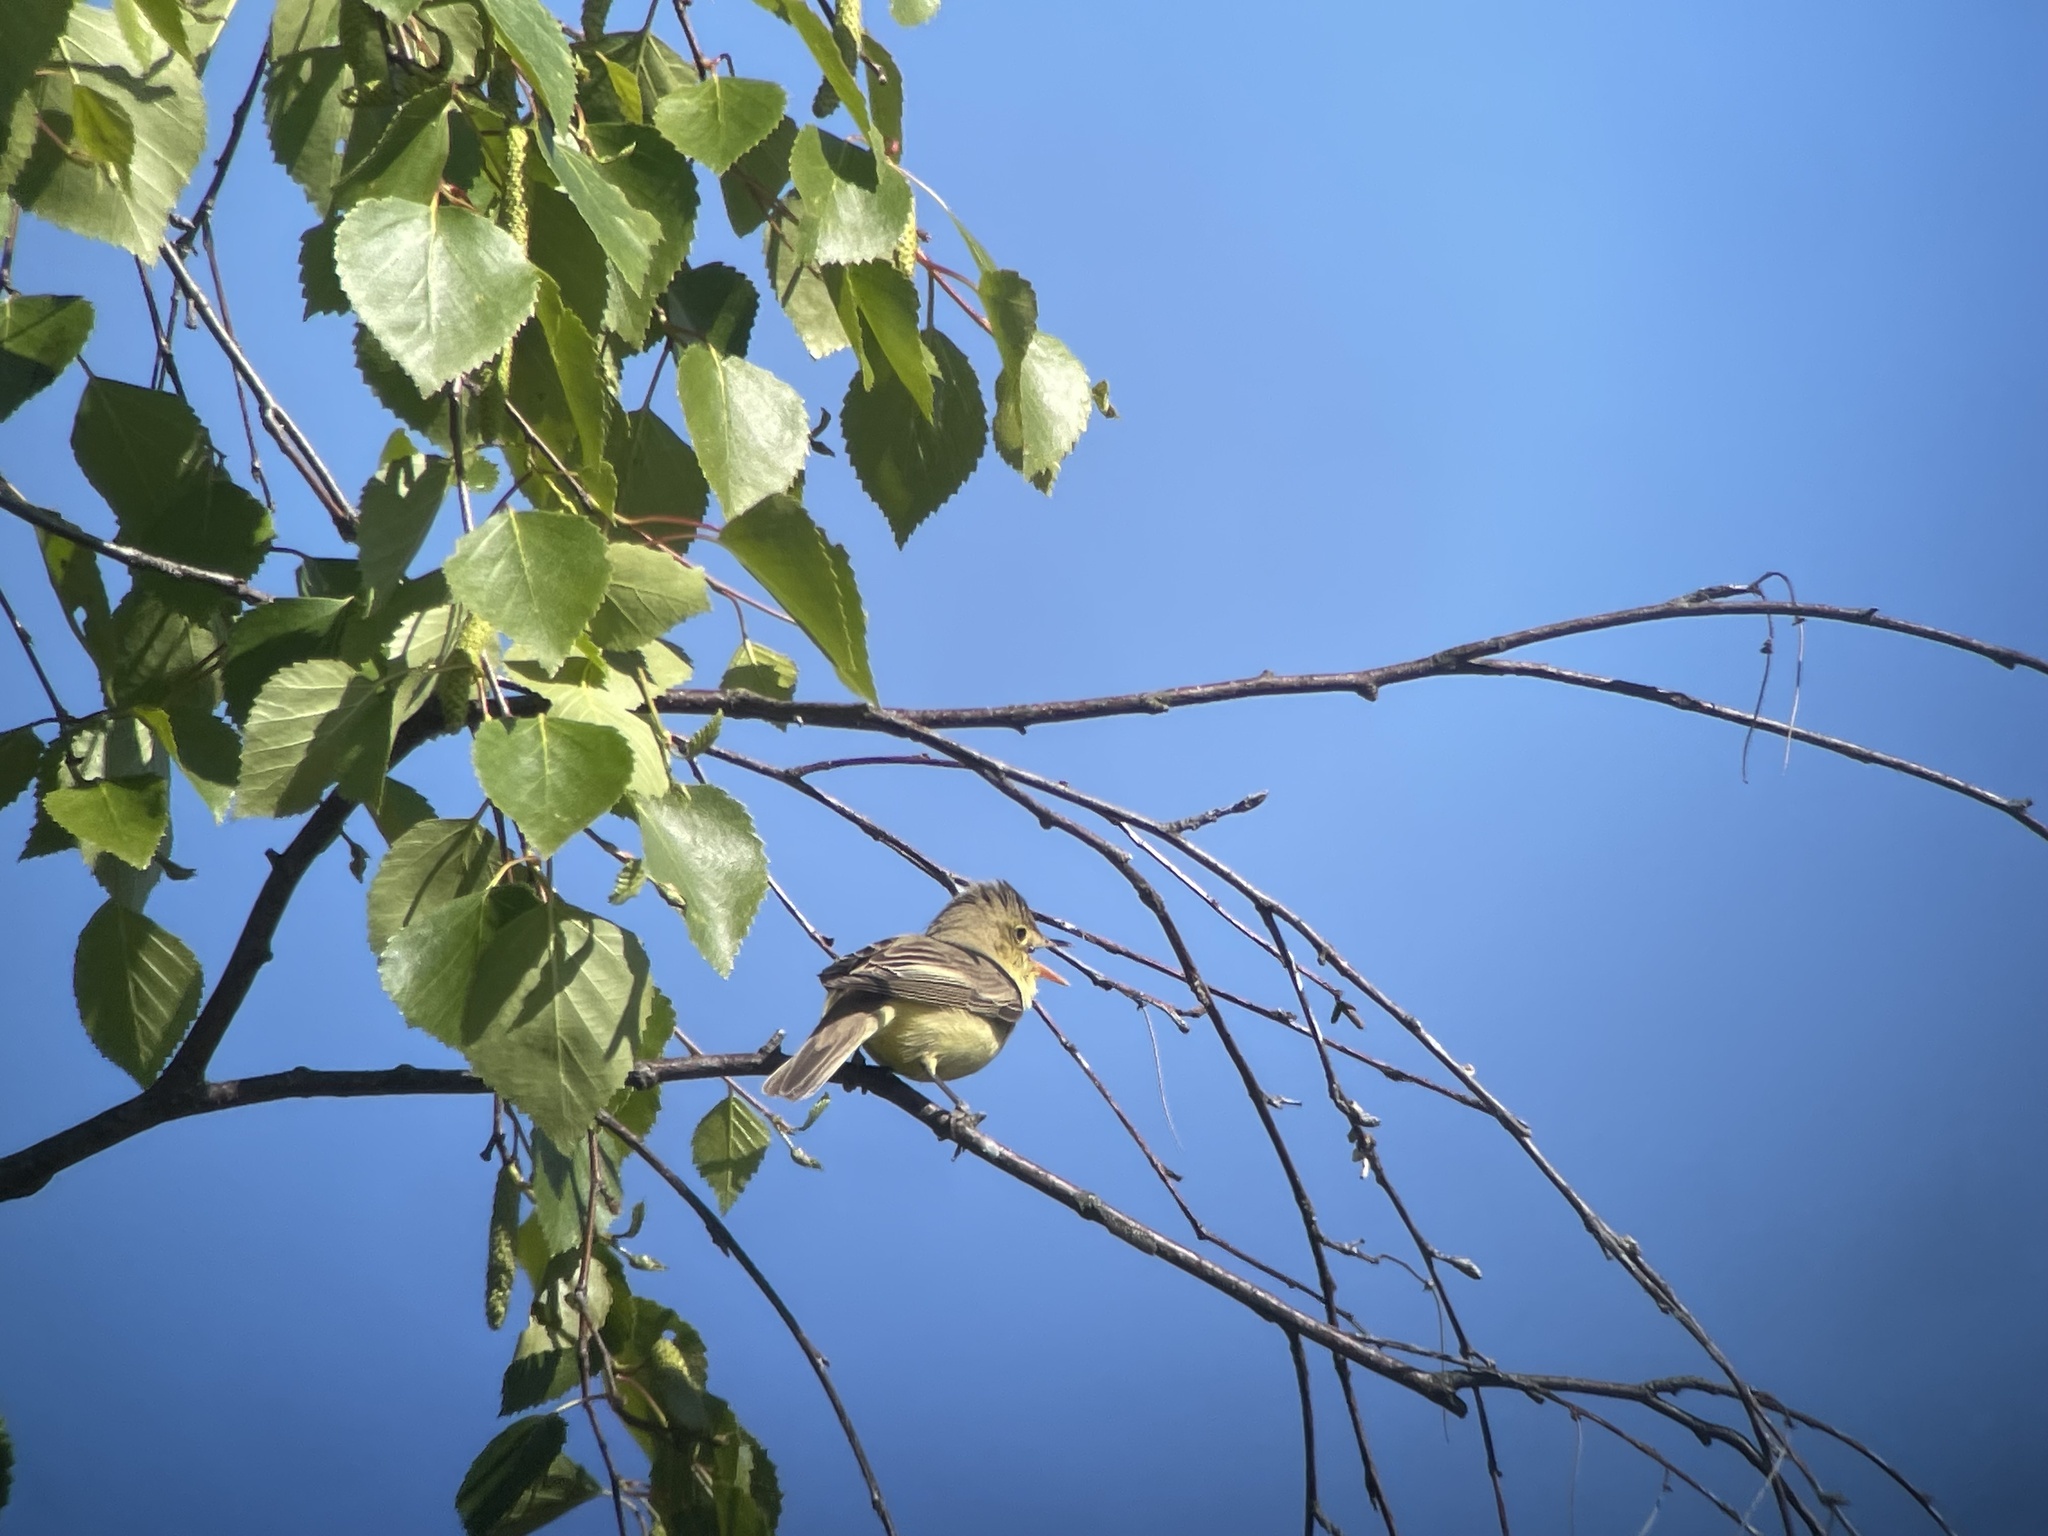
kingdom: Animalia
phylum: Chordata
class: Aves
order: Passeriformes
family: Acrocephalidae
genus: Hippolais
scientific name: Hippolais icterina
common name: Icterine warbler
